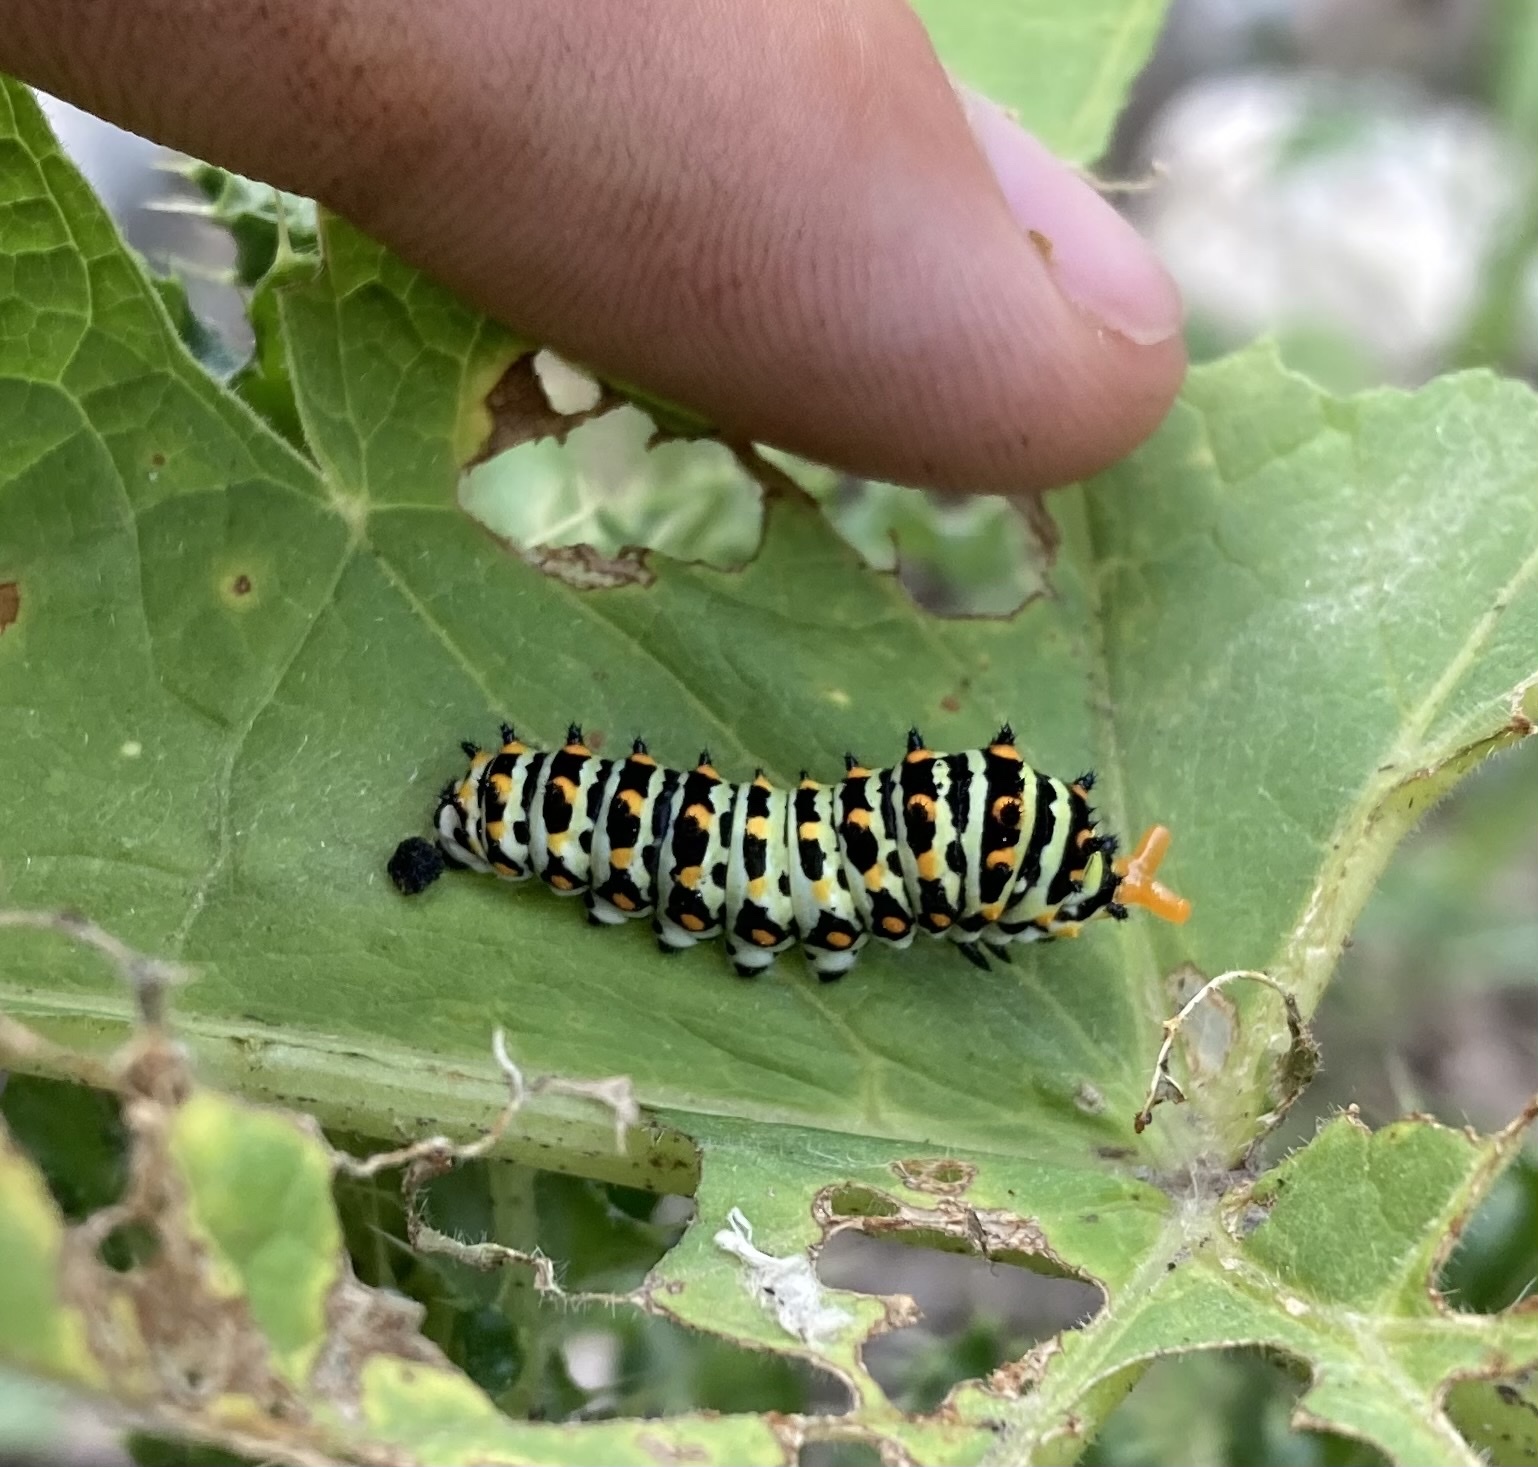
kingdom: Animalia
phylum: Arthropoda
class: Insecta
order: Lepidoptera
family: Papilionidae
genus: Papilio
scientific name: Papilio zelicaon
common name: Anise swallowtail
